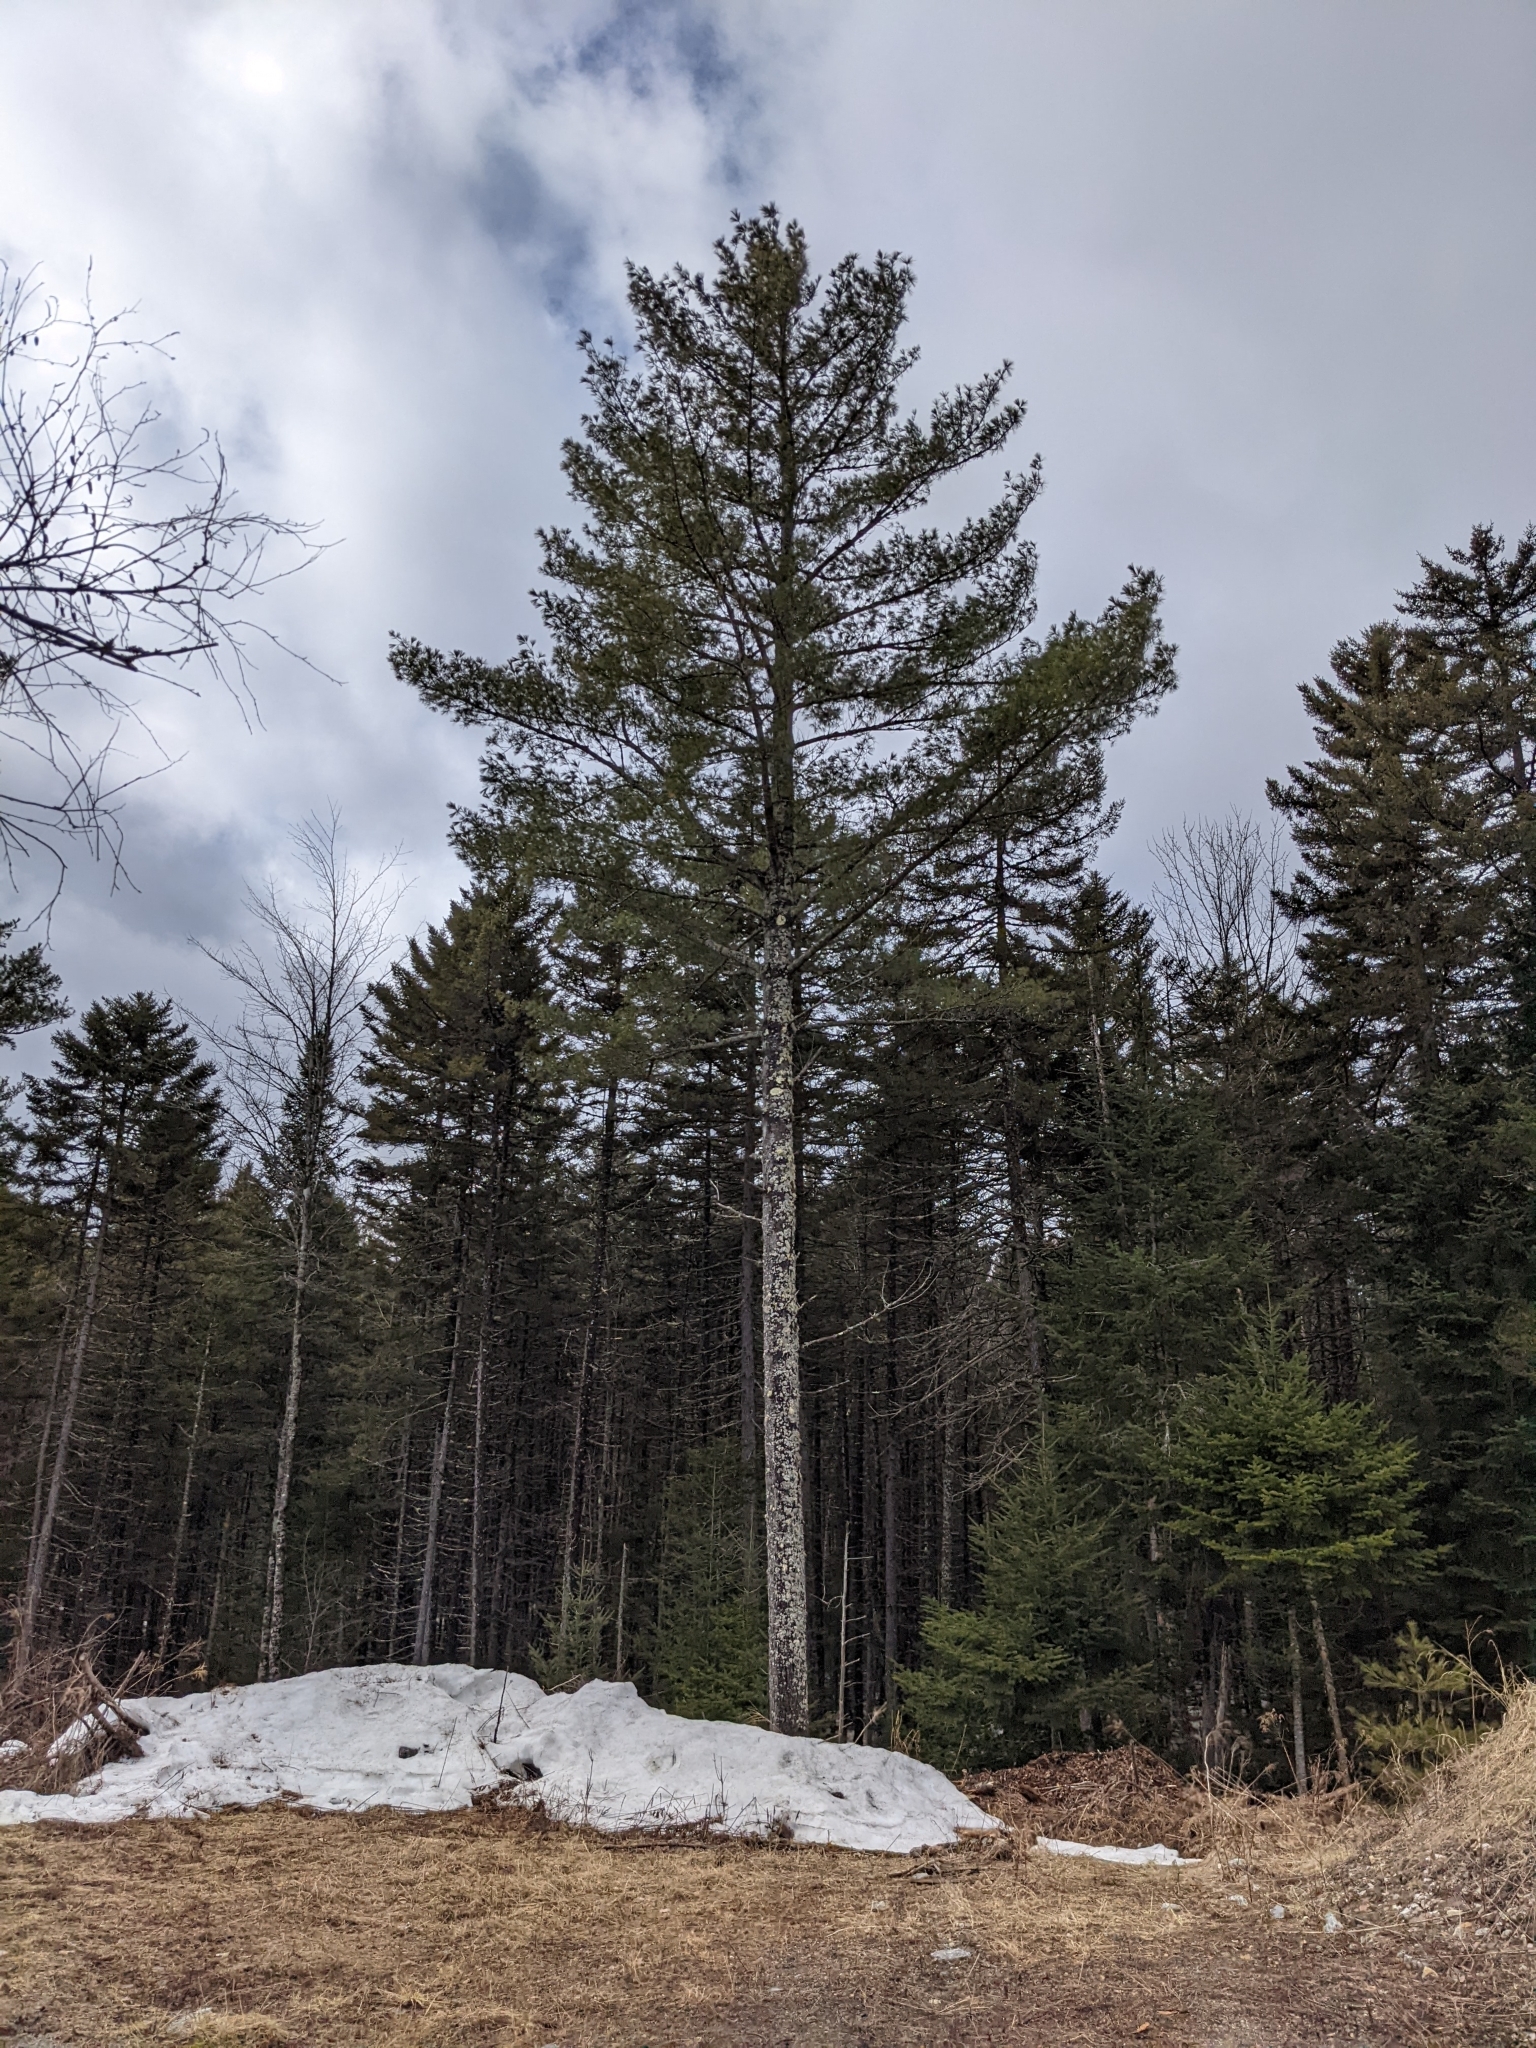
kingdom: Plantae
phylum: Tracheophyta
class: Pinopsida
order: Pinales
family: Pinaceae
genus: Pinus
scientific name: Pinus strobus
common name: Weymouth pine
